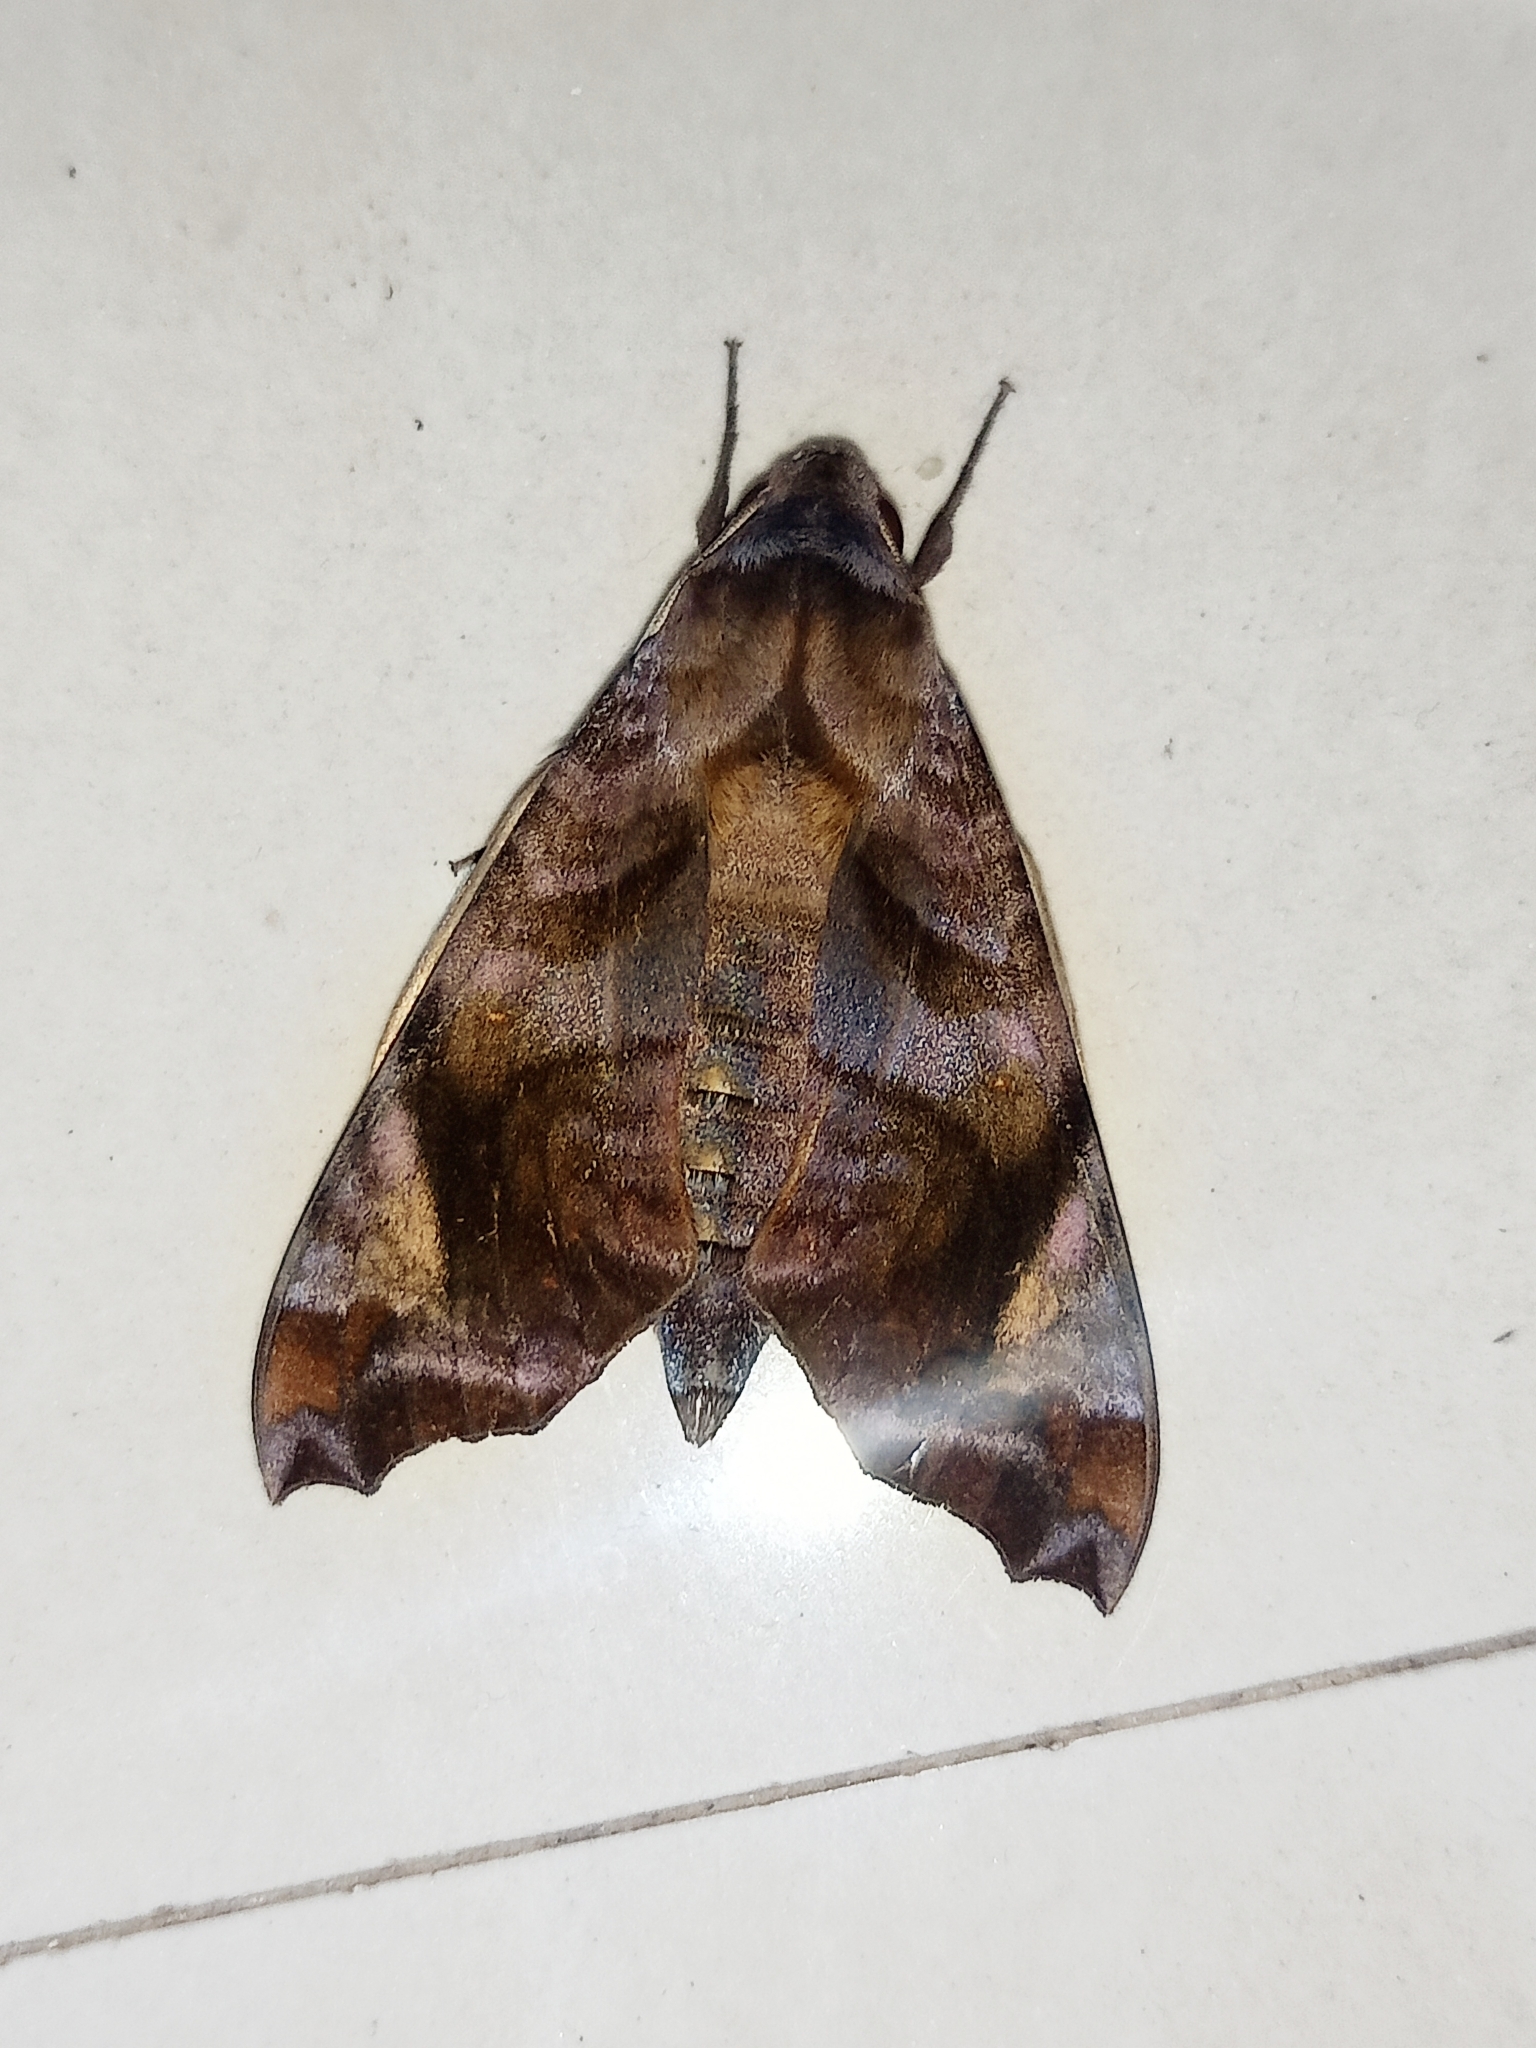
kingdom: Animalia
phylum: Arthropoda
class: Insecta
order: Lepidoptera
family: Sphingidae
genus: Acosmeryx
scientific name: Acosmeryx anceus
